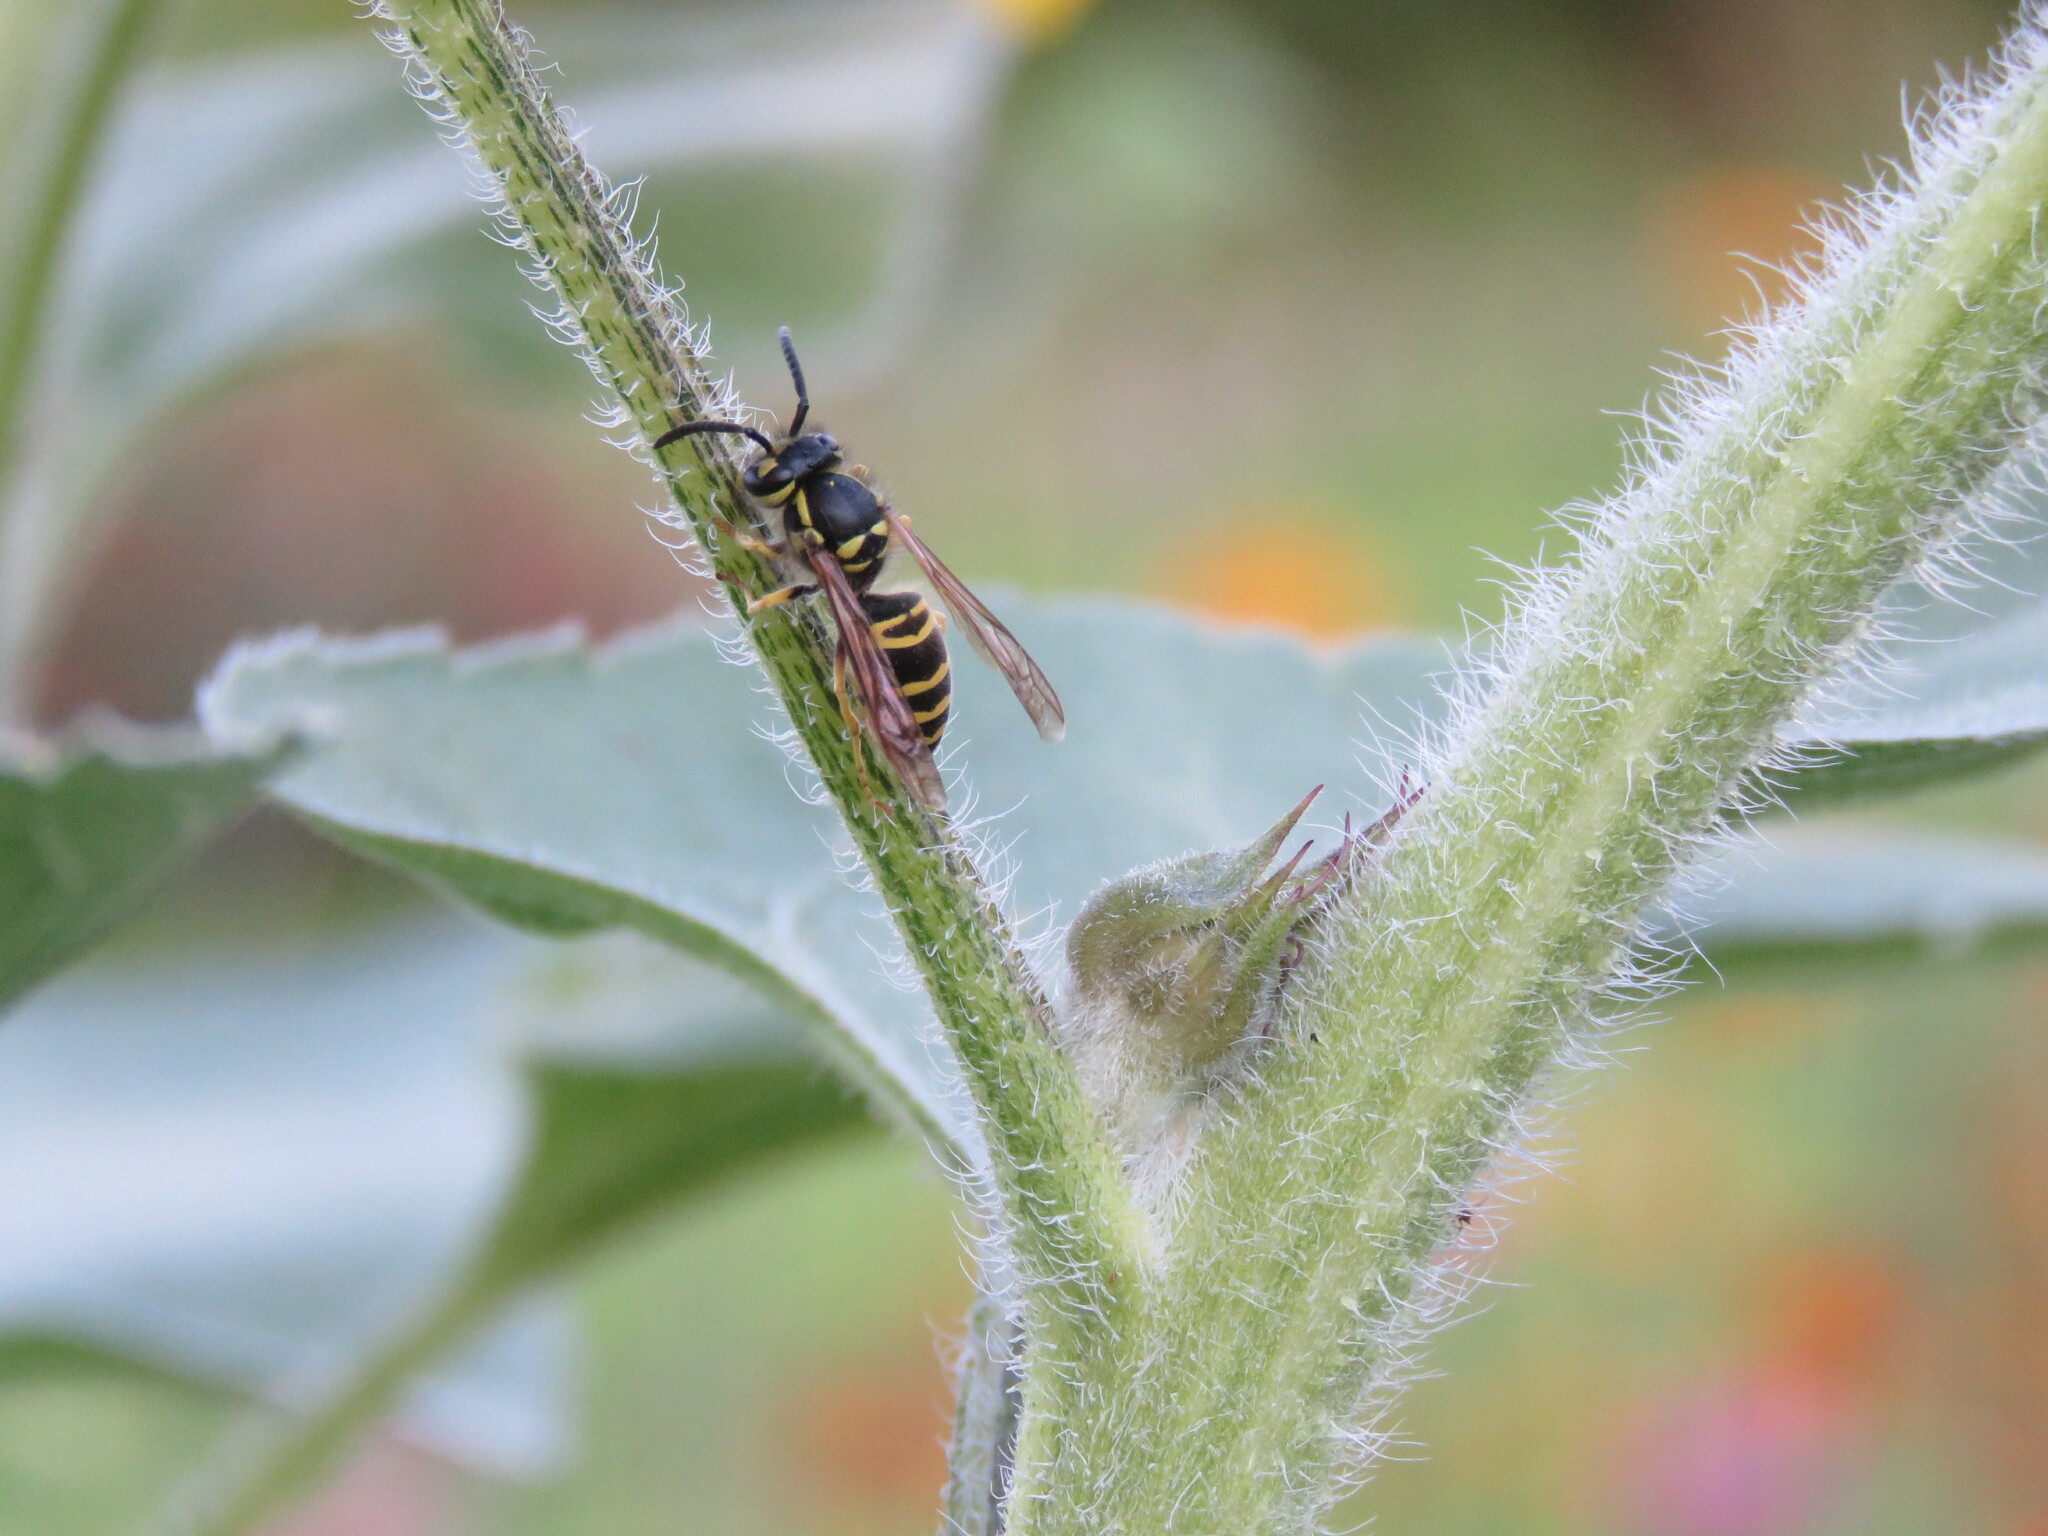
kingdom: Animalia
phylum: Arthropoda
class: Insecta
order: Hymenoptera
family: Vespidae
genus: Vespula
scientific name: Vespula maculifrons
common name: Eastern yellowjacket
